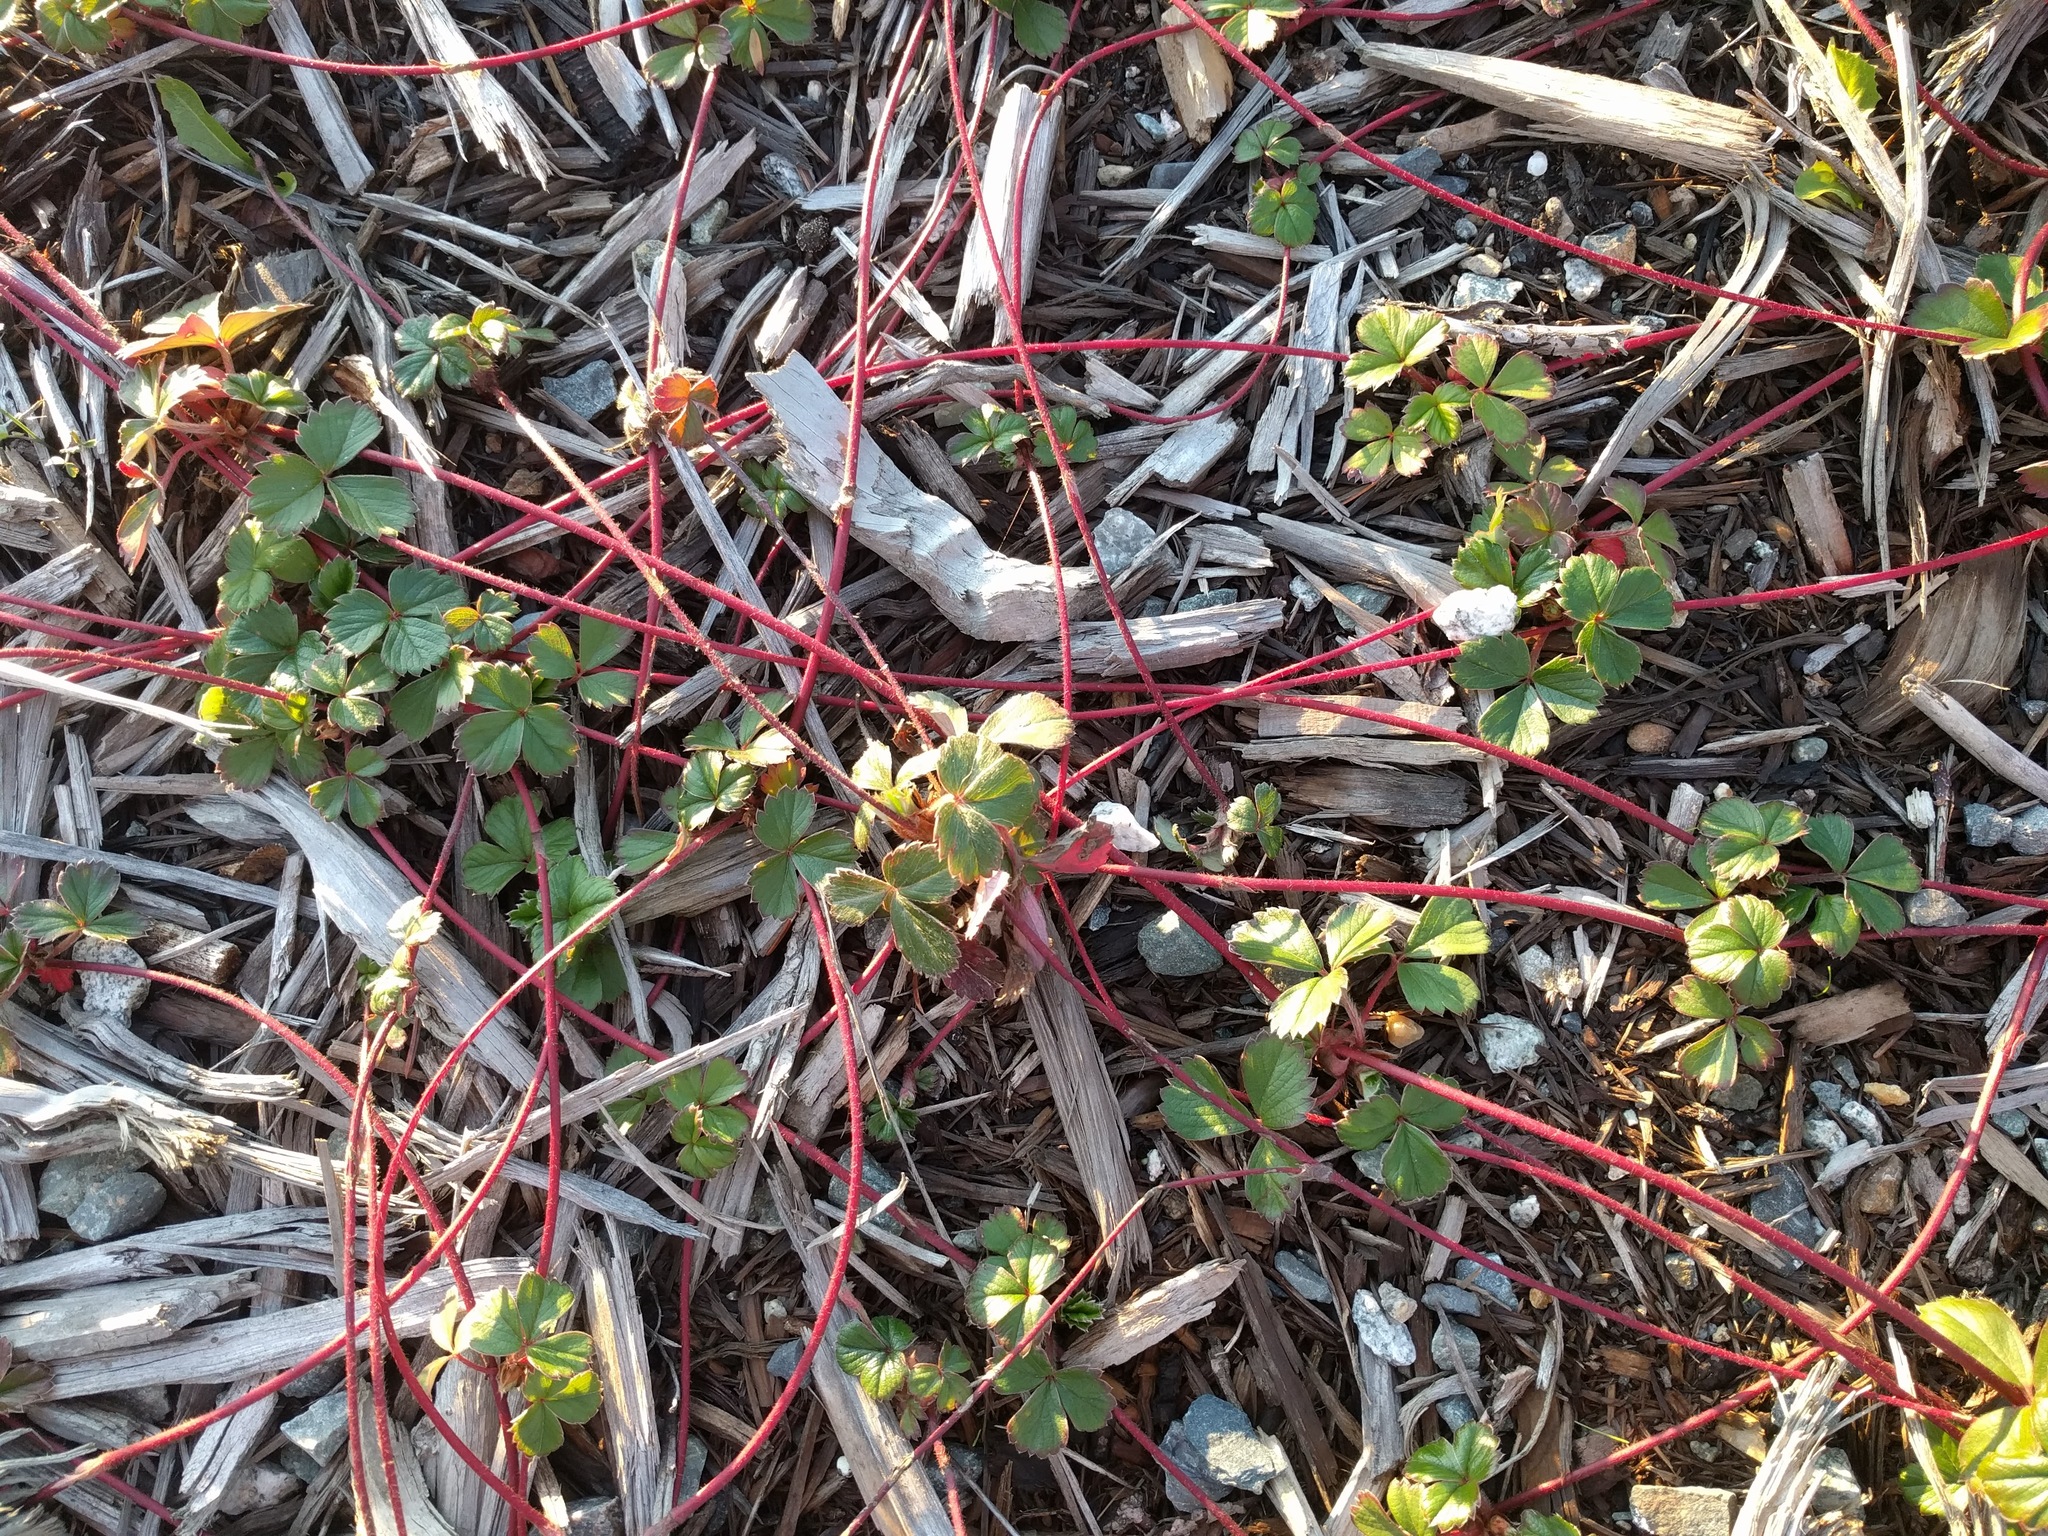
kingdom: Plantae
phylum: Tracheophyta
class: Magnoliopsida
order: Rosales
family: Rosaceae
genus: Fragaria
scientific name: Fragaria chiloensis
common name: Beach strawberry
